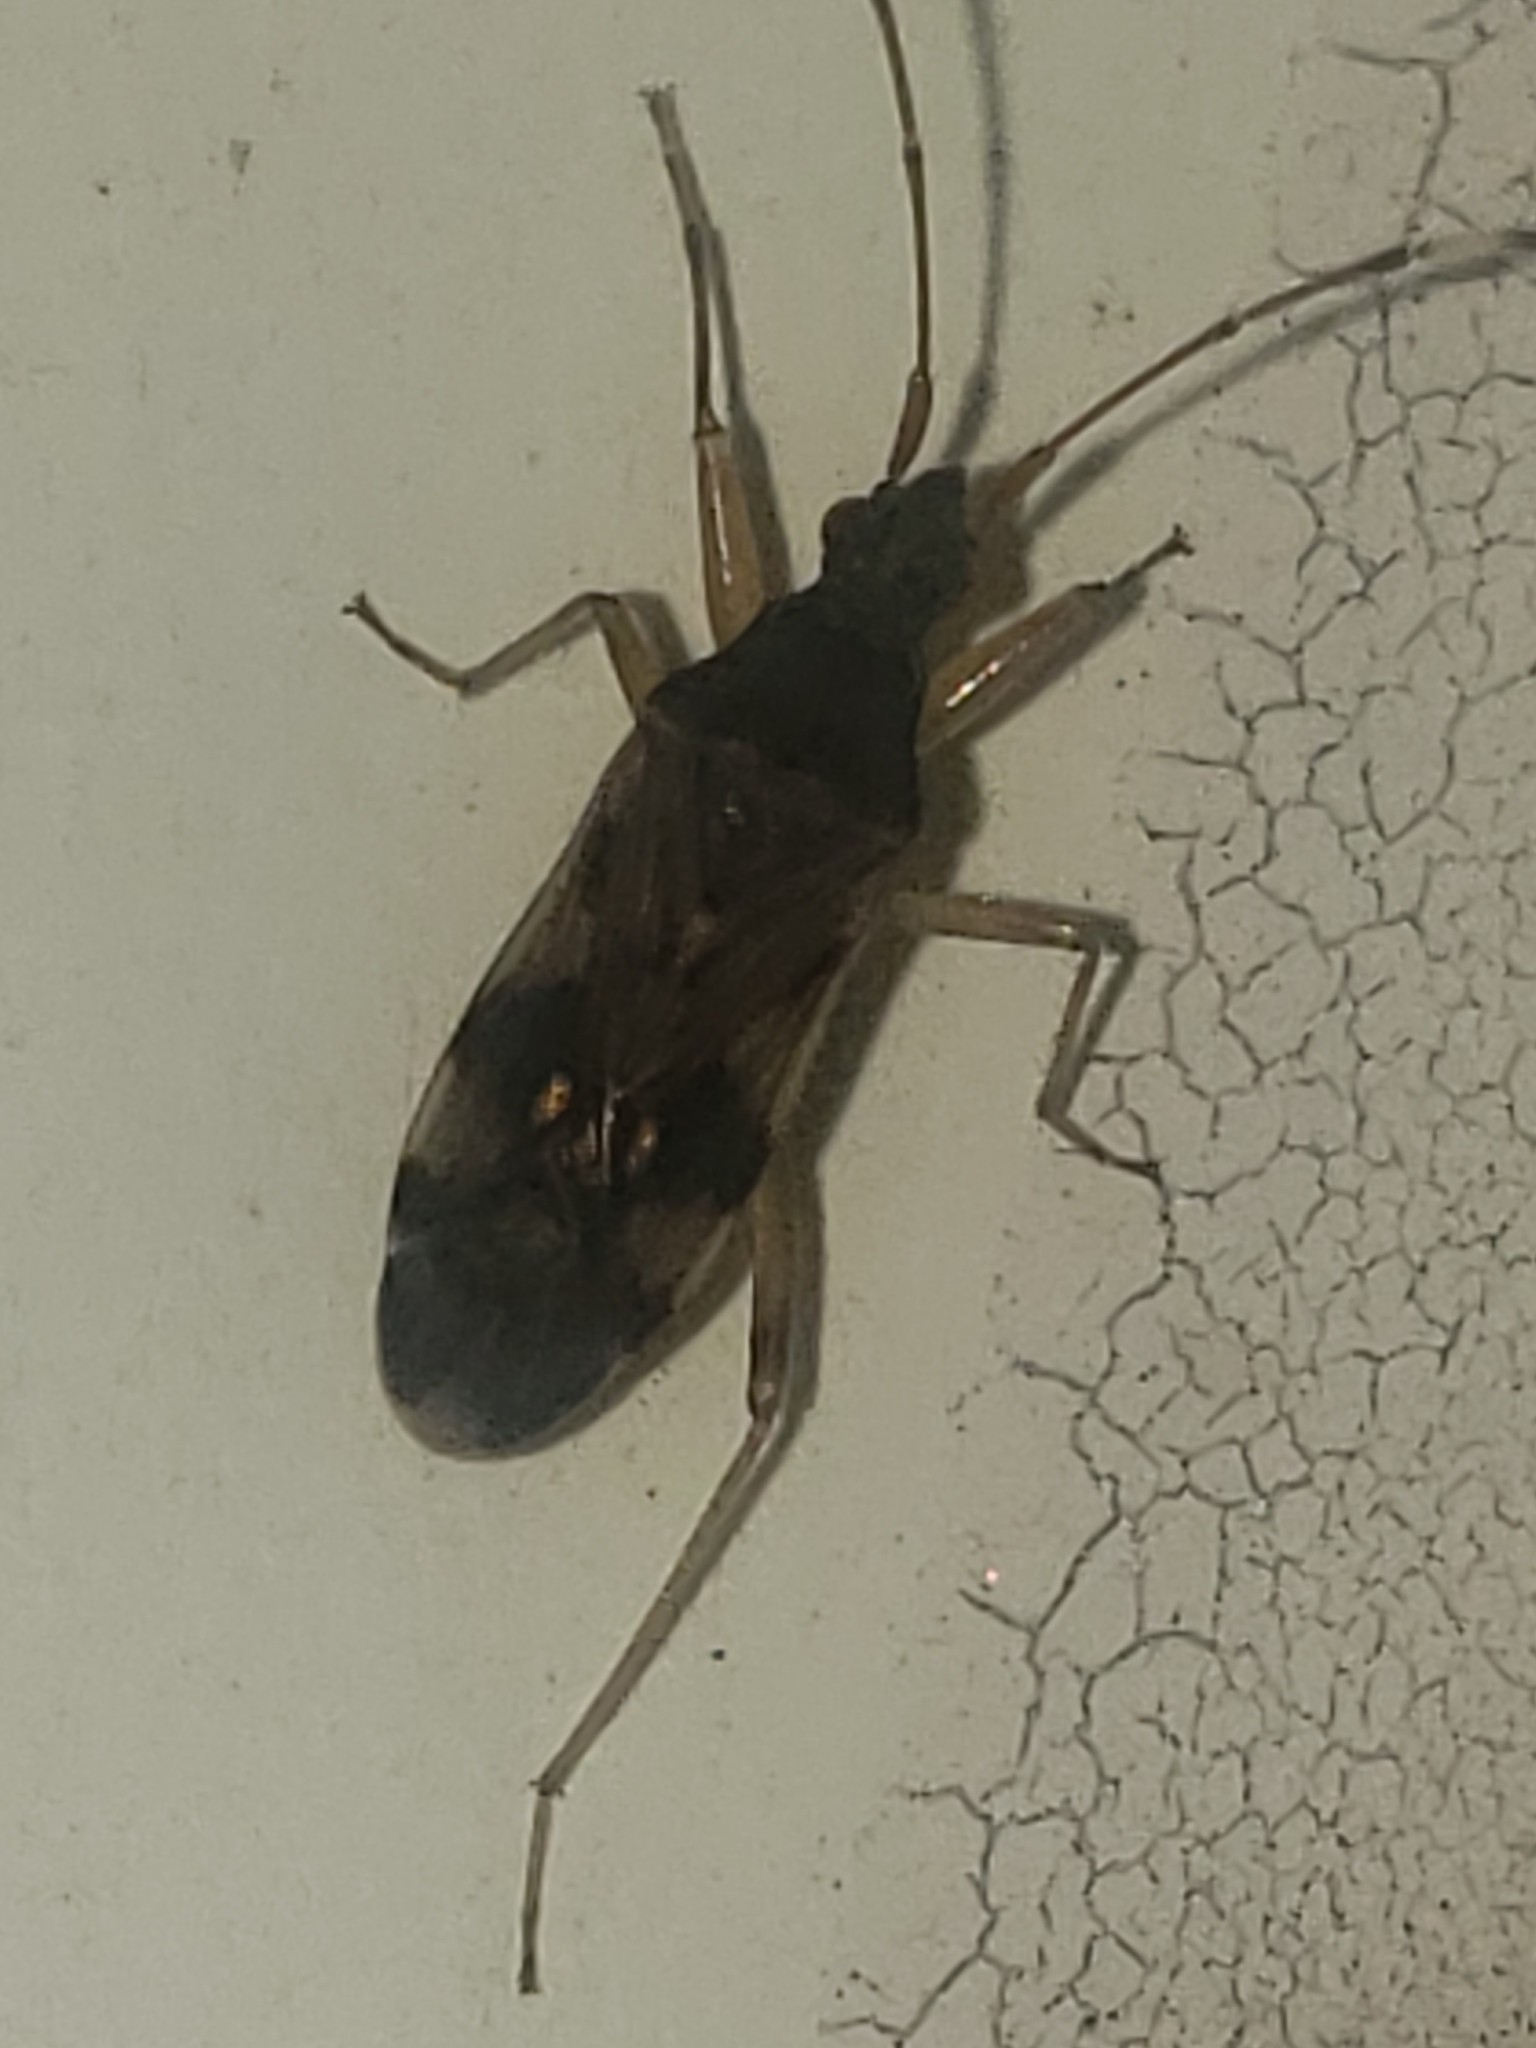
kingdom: Animalia
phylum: Arthropoda
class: Insecta
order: Hemiptera
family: Rhyparochromidae
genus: Ozophora
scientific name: Ozophora picturata
